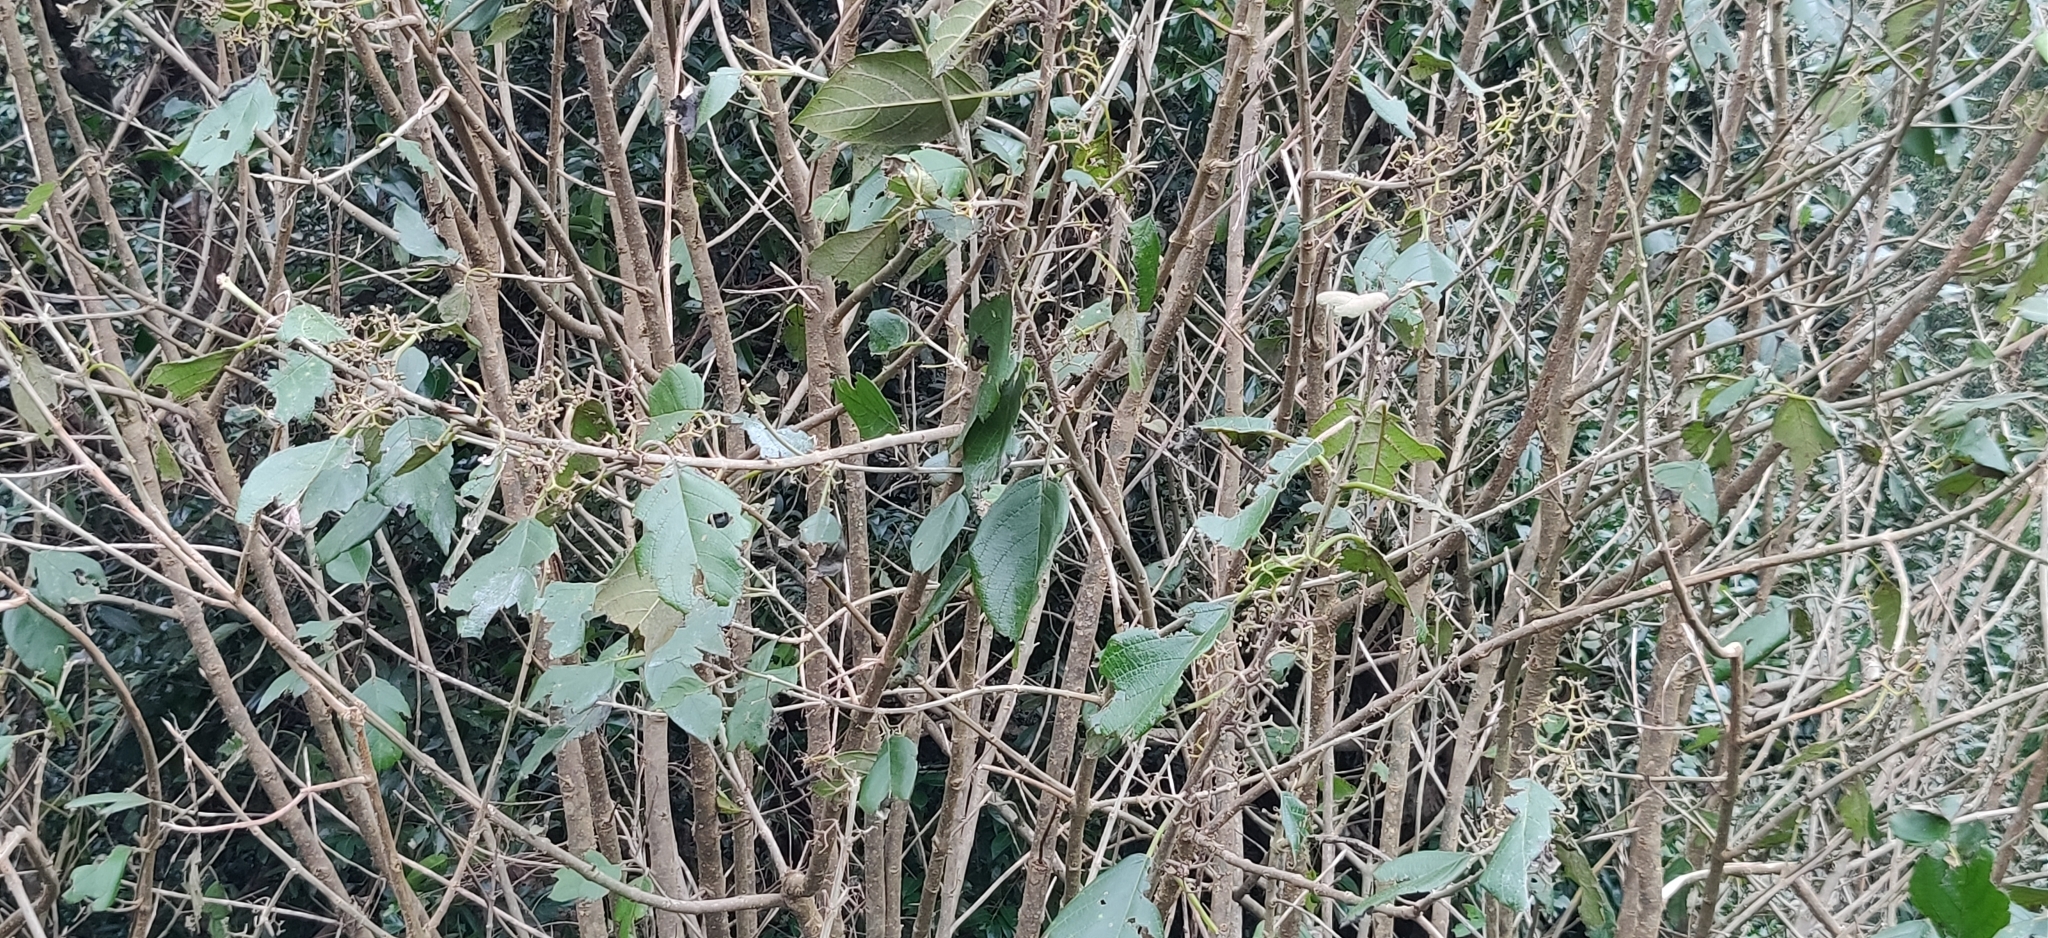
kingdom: Plantae
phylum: Tracheophyta
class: Magnoliopsida
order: Lamiales
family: Lamiaceae
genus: Callicarpa
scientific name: Callicarpa tomentosa
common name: Great woolly malayan-lilac
